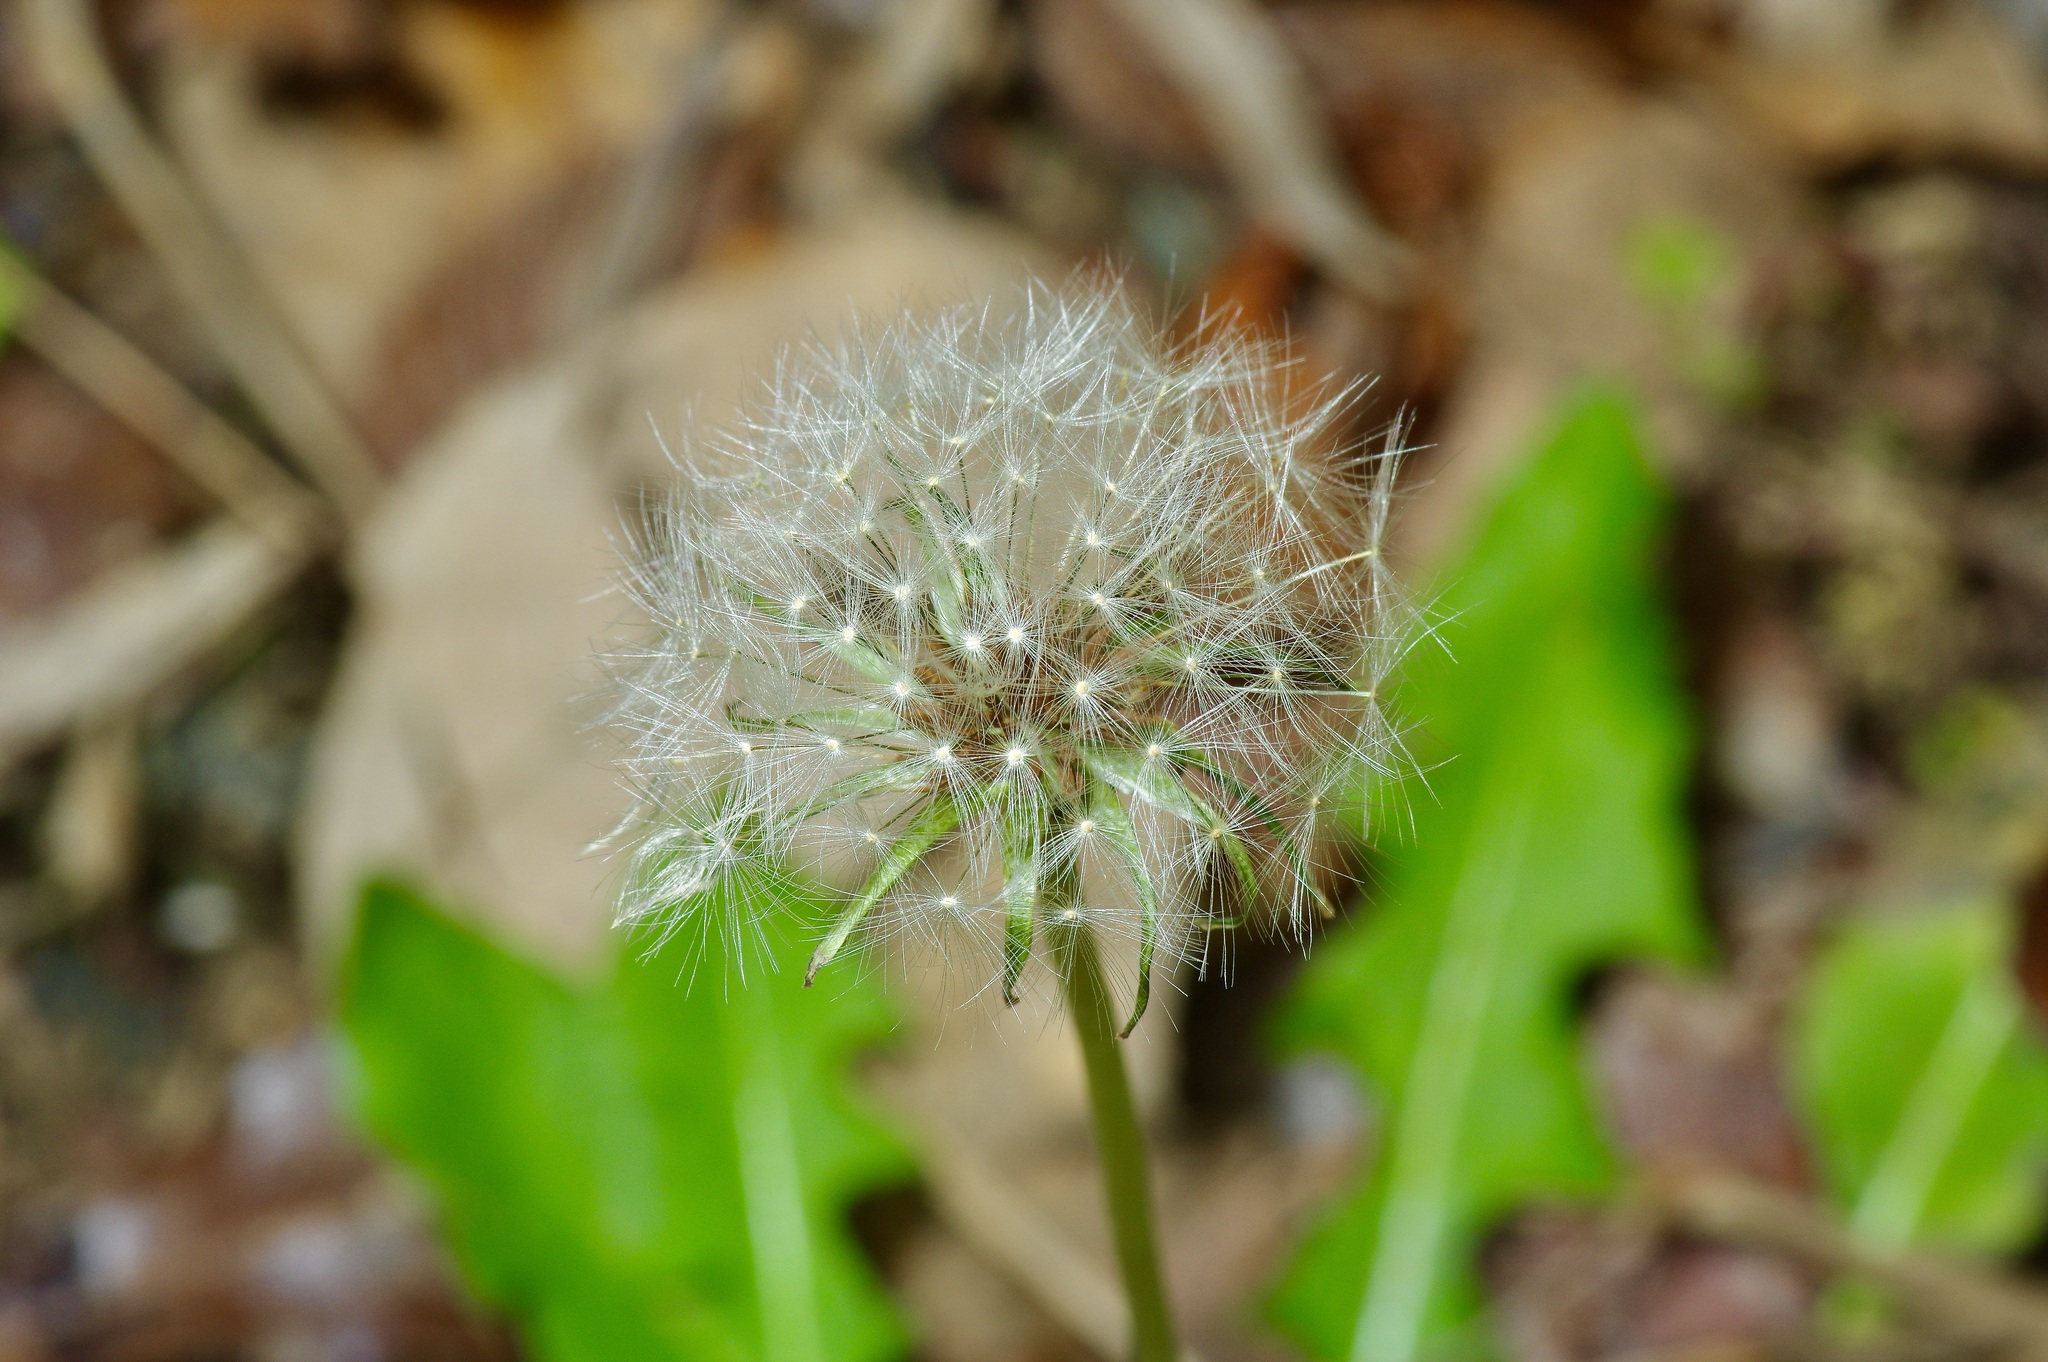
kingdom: Plantae
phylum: Tracheophyta
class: Magnoliopsida
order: Asterales
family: Asteraceae
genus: Taraxacum
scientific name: Taraxacum erythrospermum
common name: Rock dandelion
